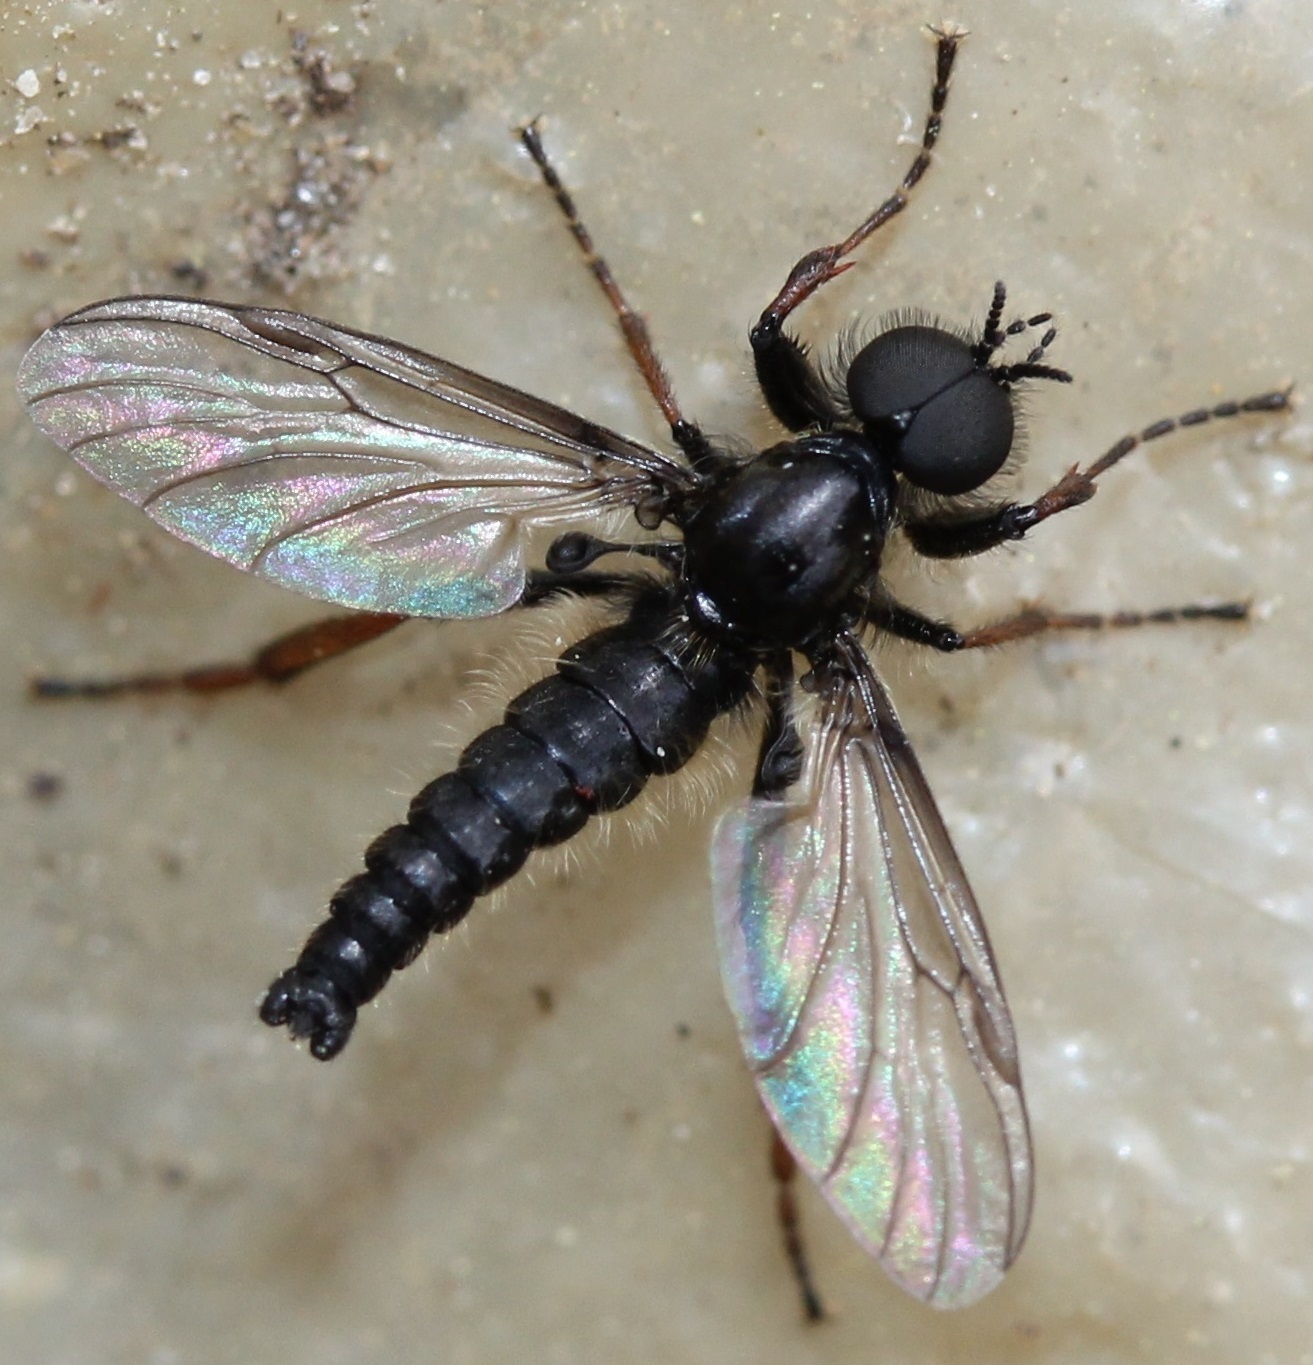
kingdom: Animalia
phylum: Arthropoda
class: Insecta
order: Diptera
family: Bibionidae
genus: Bibio
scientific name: Bibio lanigerus
